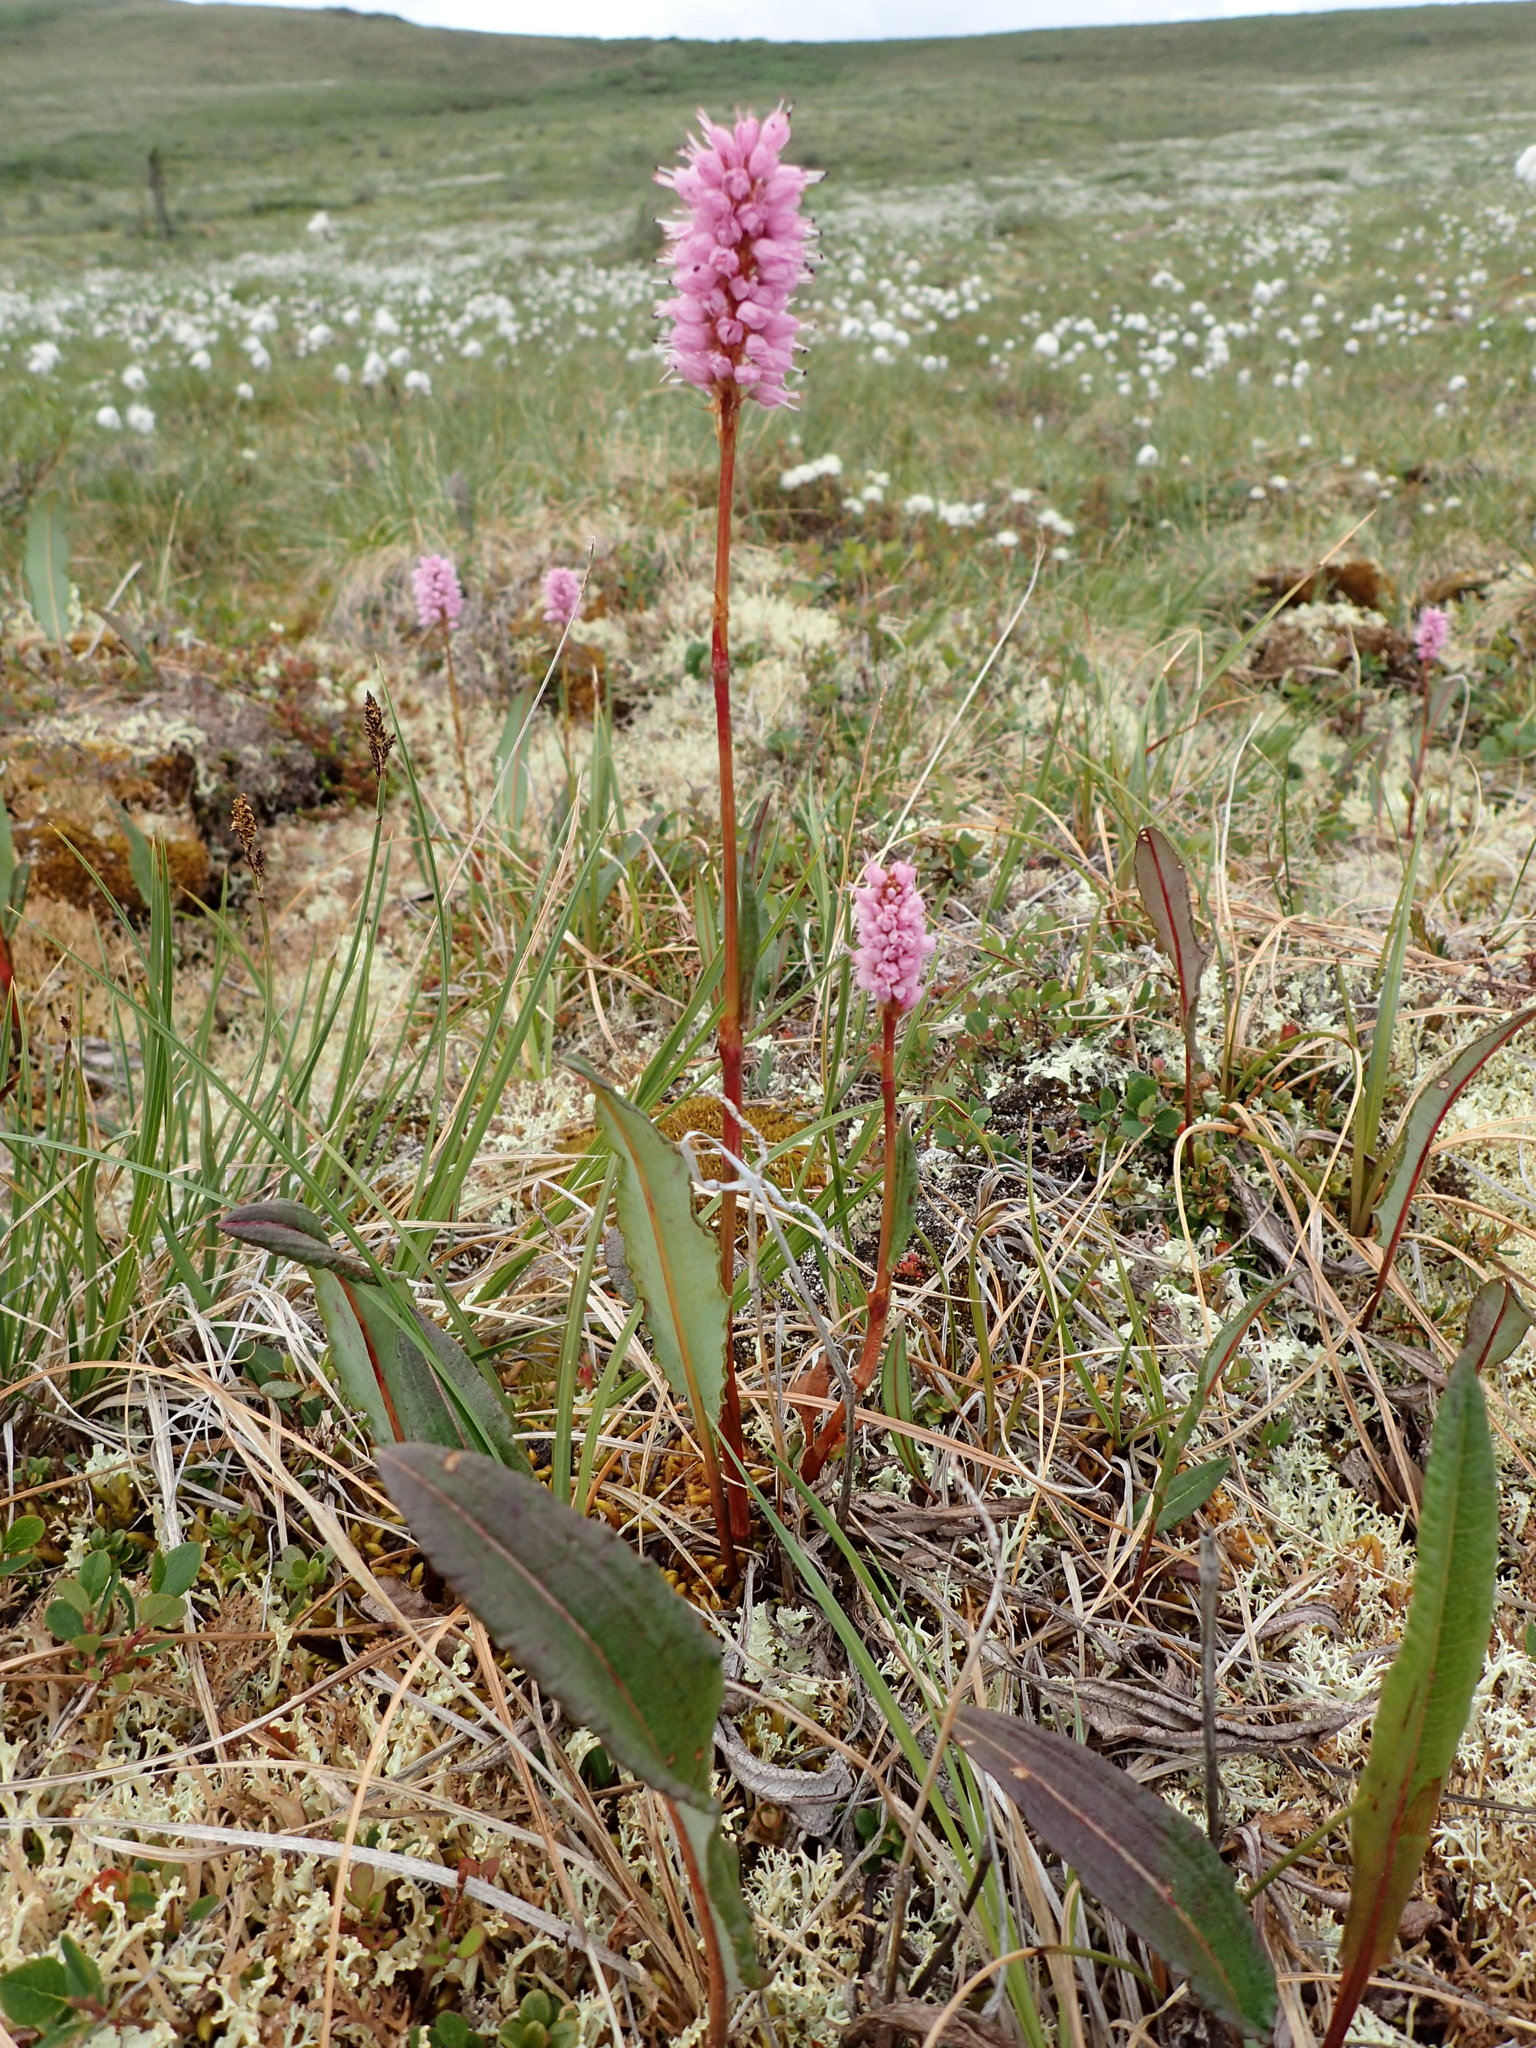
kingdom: Plantae
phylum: Tracheophyta
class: Magnoliopsida
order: Caryophyllales
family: Polygonaceae
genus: Bistorta
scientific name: Bistorta plumosa
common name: Meadow bistort
